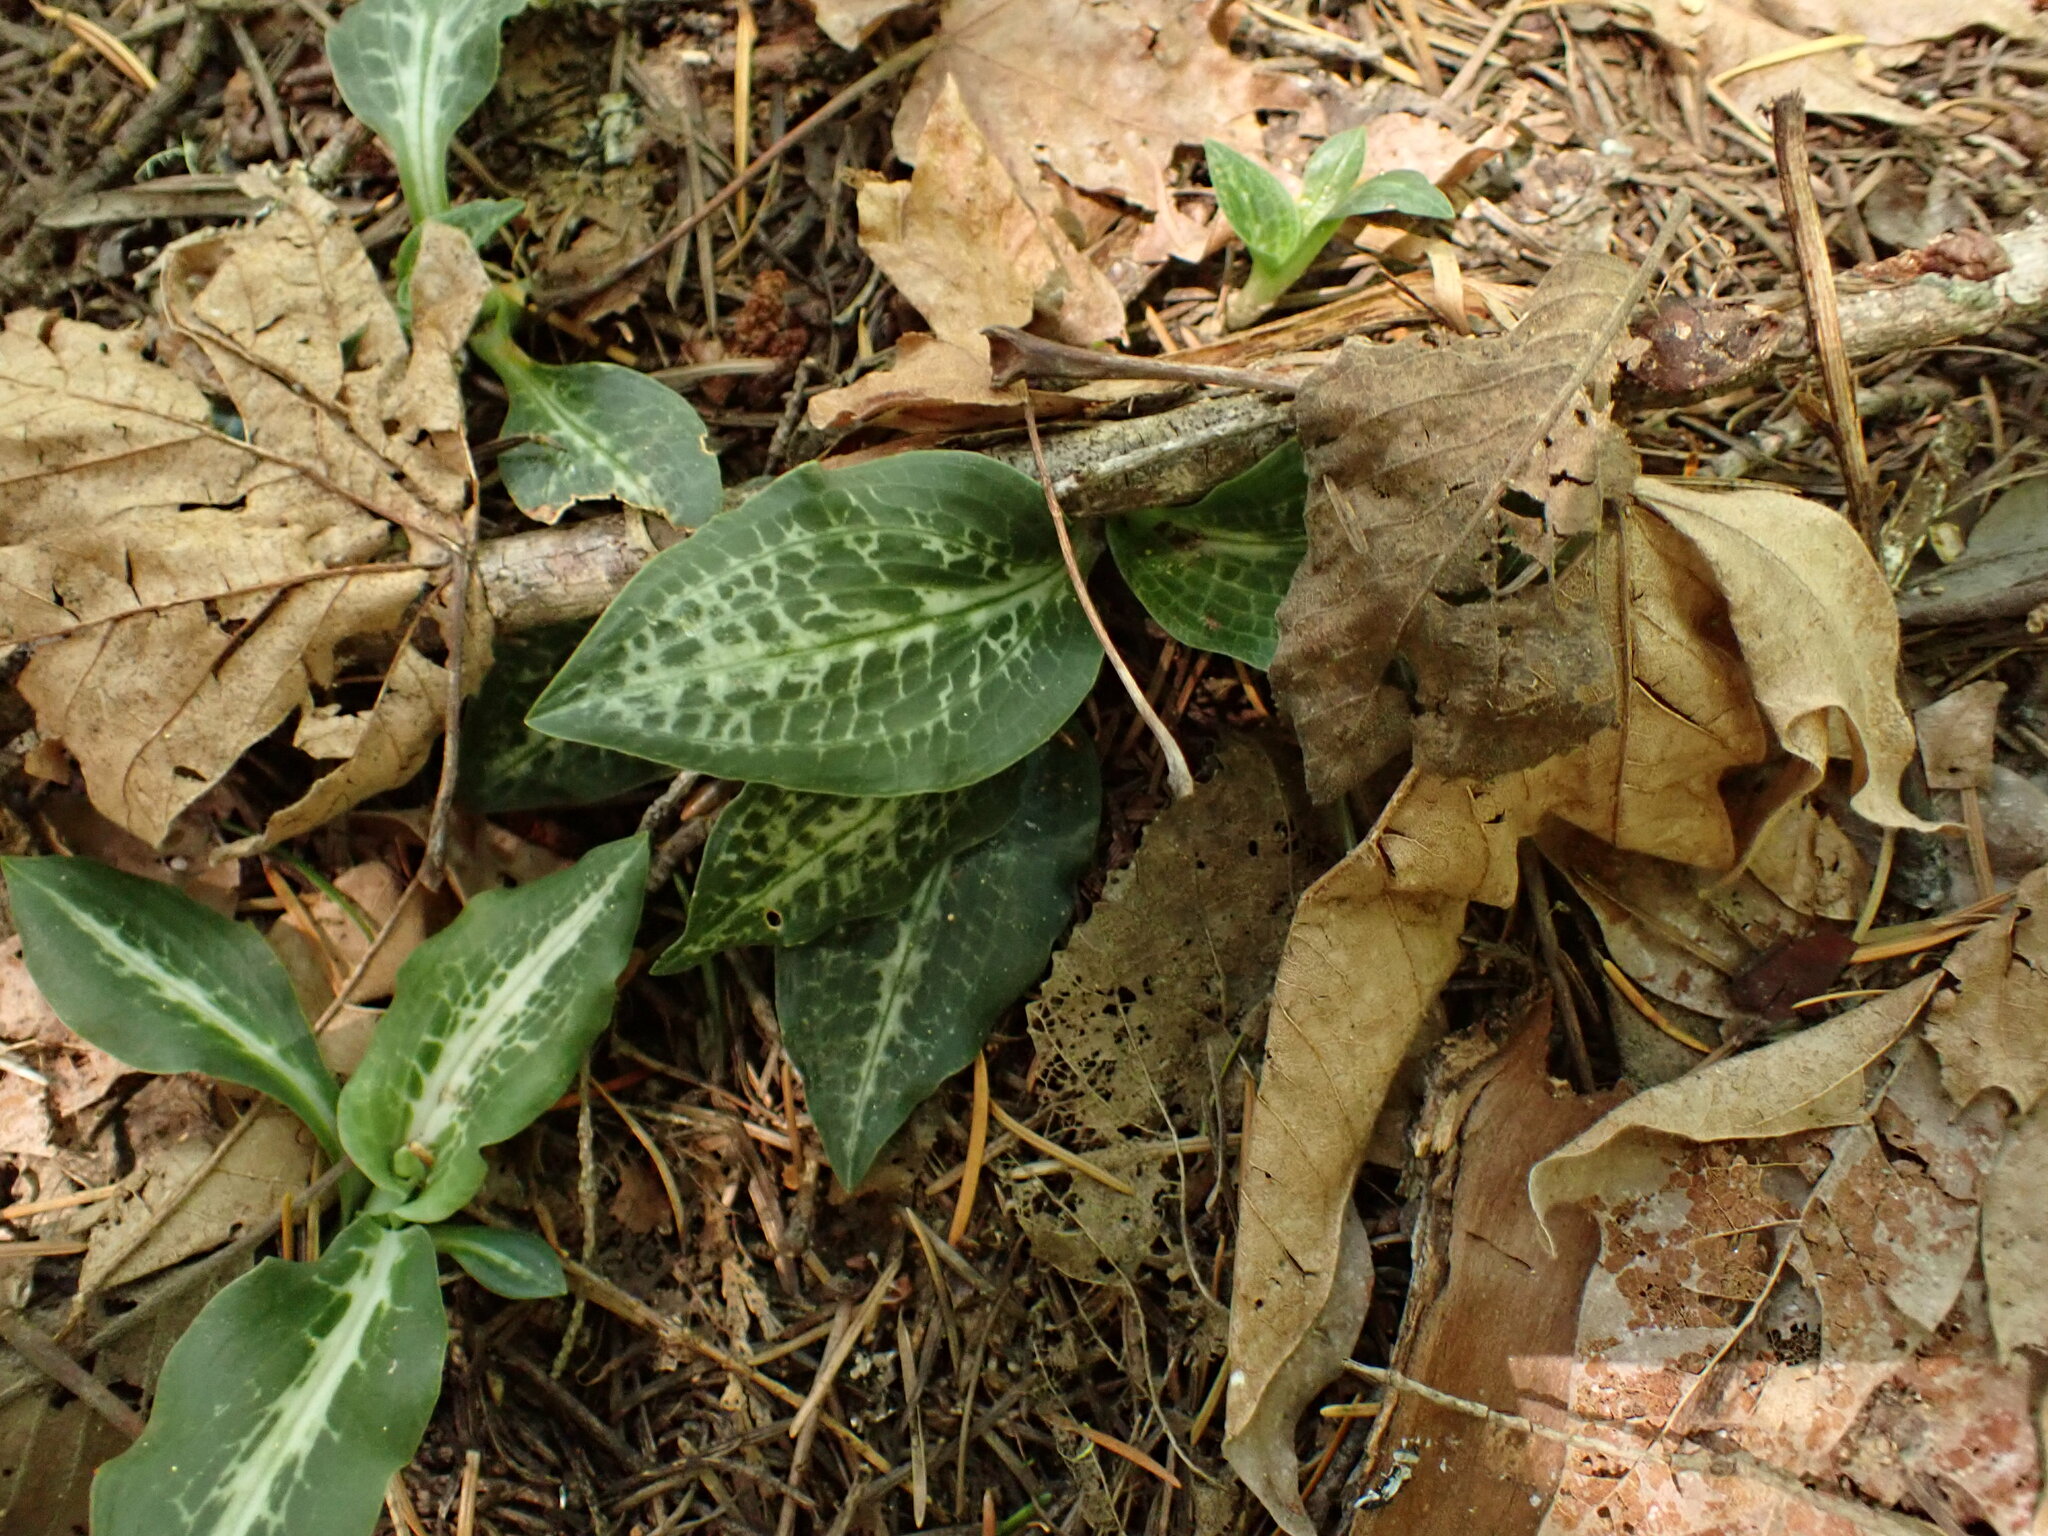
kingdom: Plantae
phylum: Tracheophyta
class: Liliopsida
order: Asparagales
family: Orchidaceae
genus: Goodyera
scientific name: Goodyera oblongifolia
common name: Giant rattlesnake-plantain
